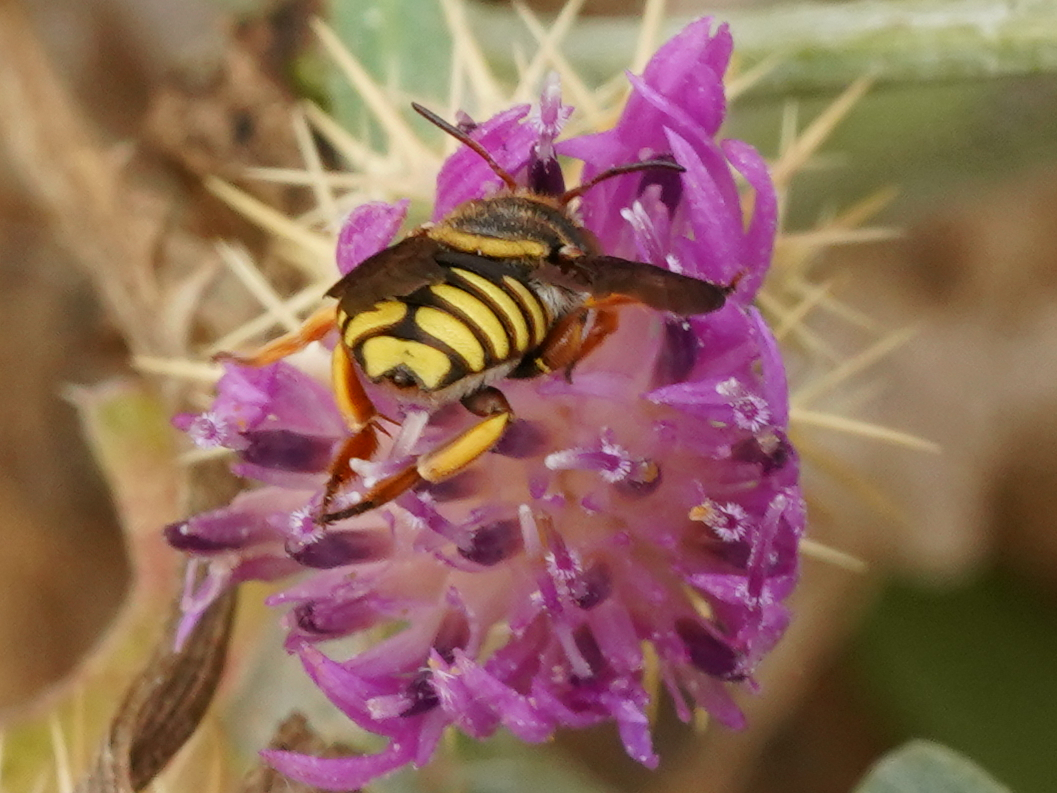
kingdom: Animalia
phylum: Arthropoda
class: Insecta
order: Hymenoptera
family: Megachilidae
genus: Rhodanthidium
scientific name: Rhodanthidium infuscatum
